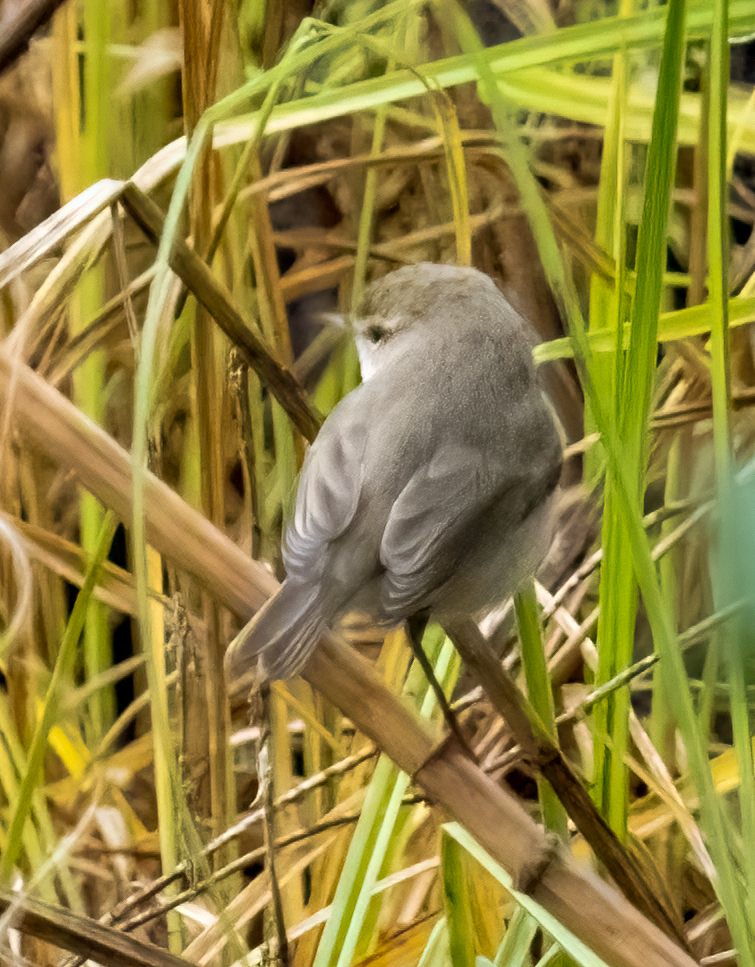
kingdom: Animalia
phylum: Chordata
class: Aves
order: Passeriformes
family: Phylloscopidae
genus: Phylloscopus
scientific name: Phylloscopus collybita
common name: Common chiffchaff
